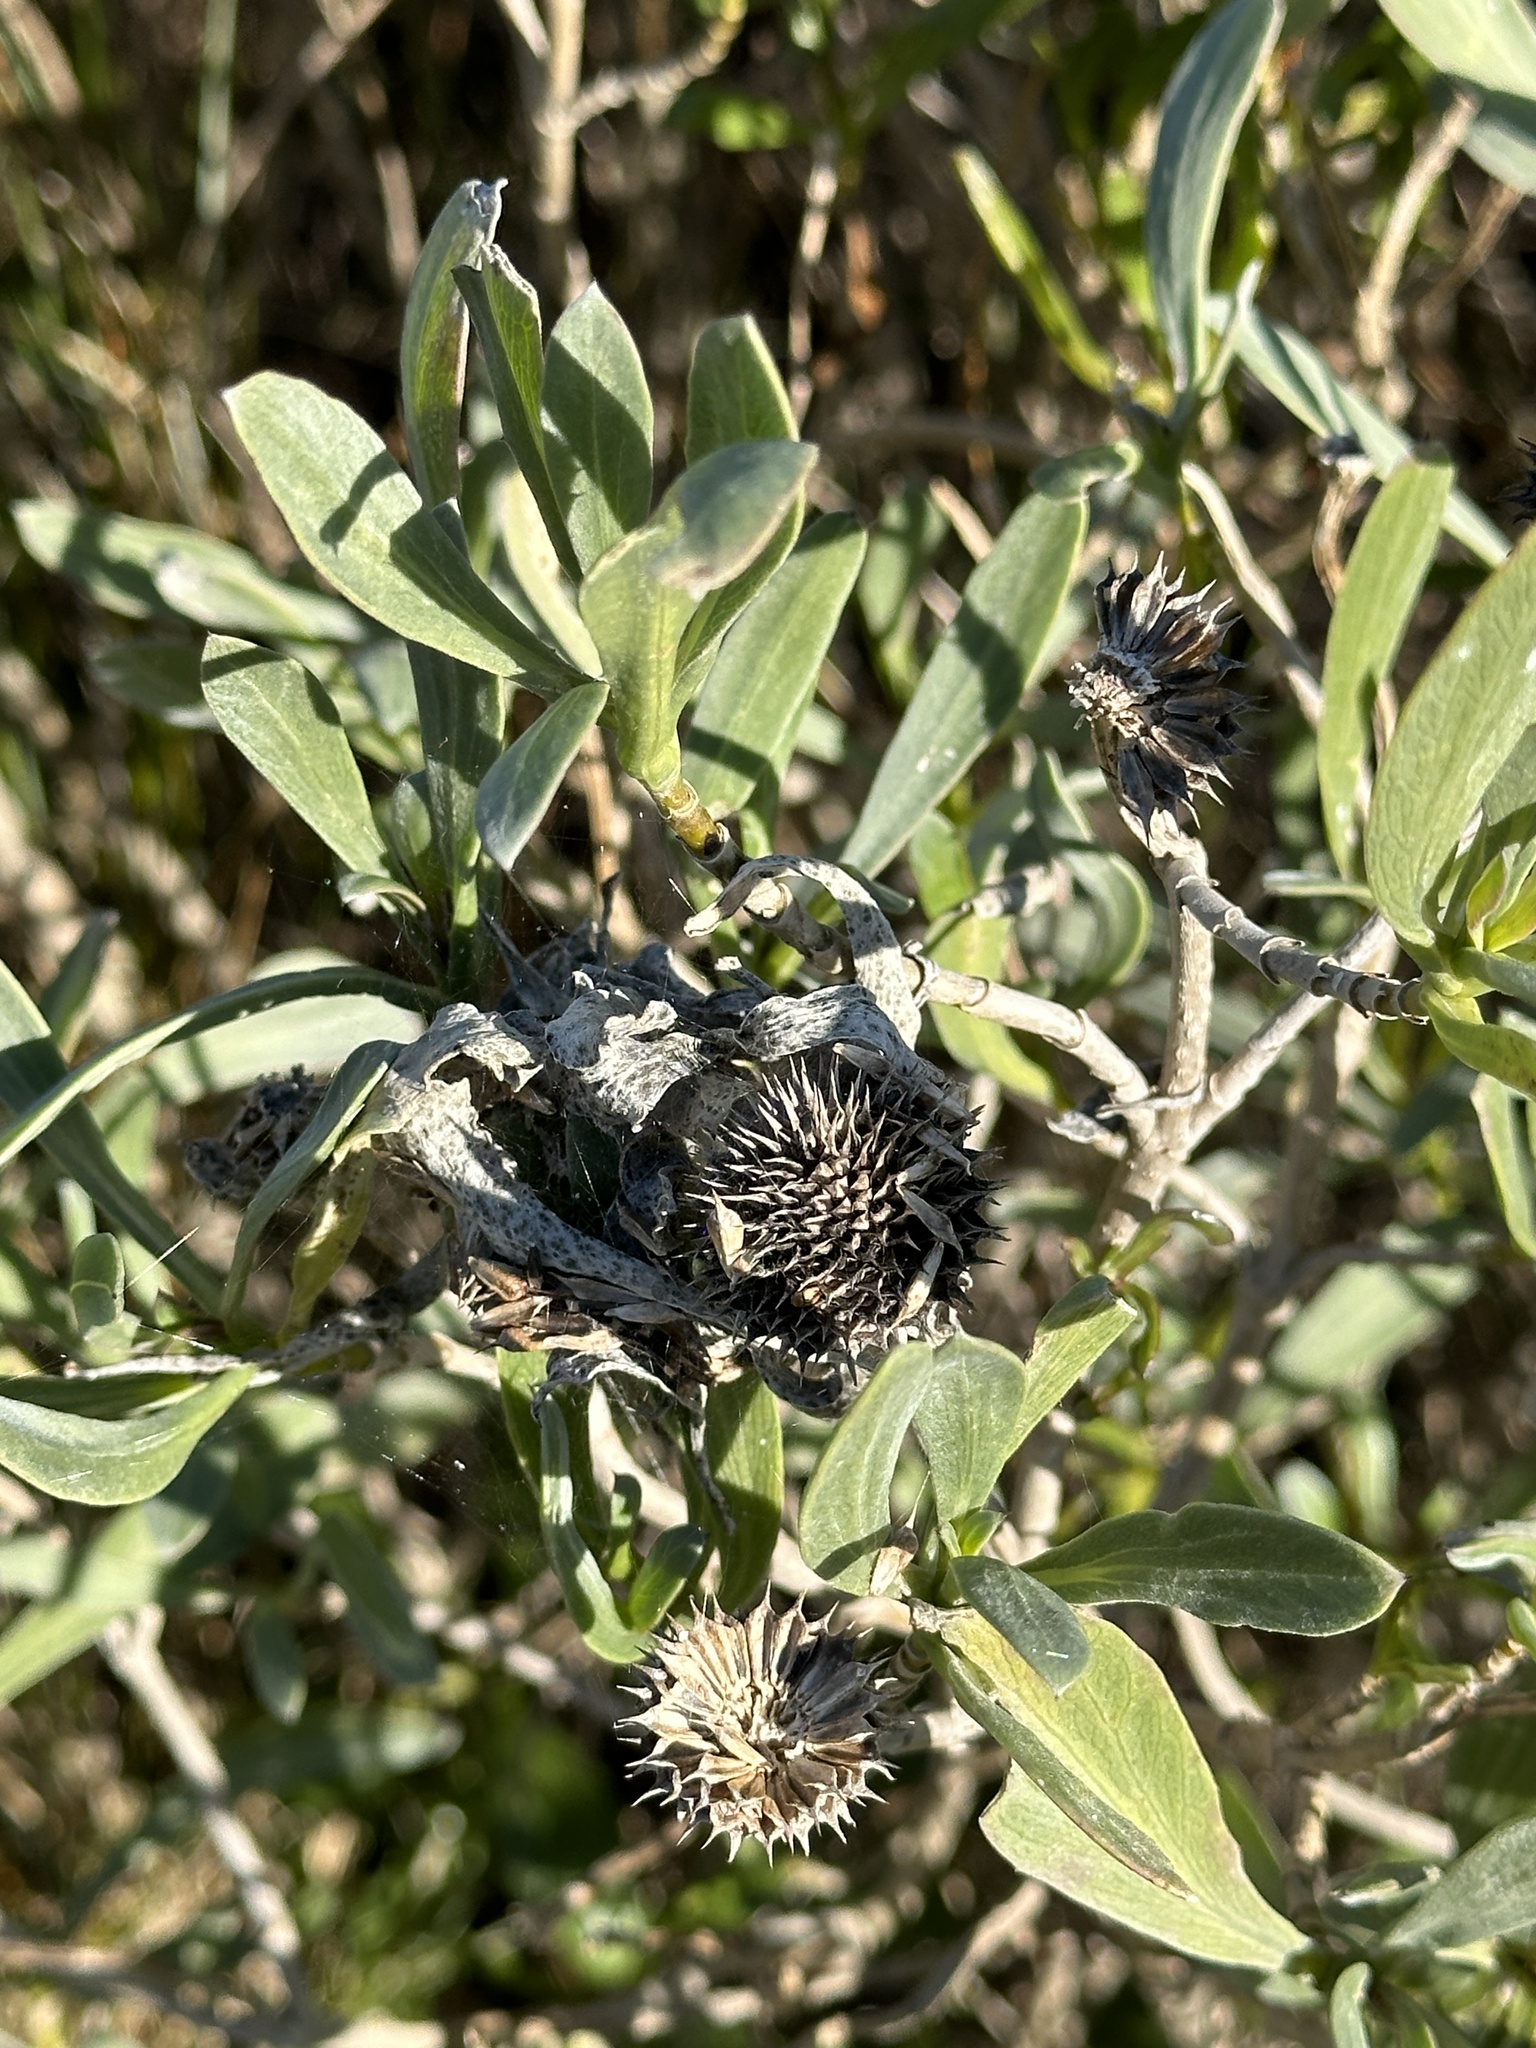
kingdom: Plantae
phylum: Tracheophyta
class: Magnoliopsida
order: Asterales
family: Asteraceae
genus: Borrichia
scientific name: Borrichia frutescens
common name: Sea oxeye
